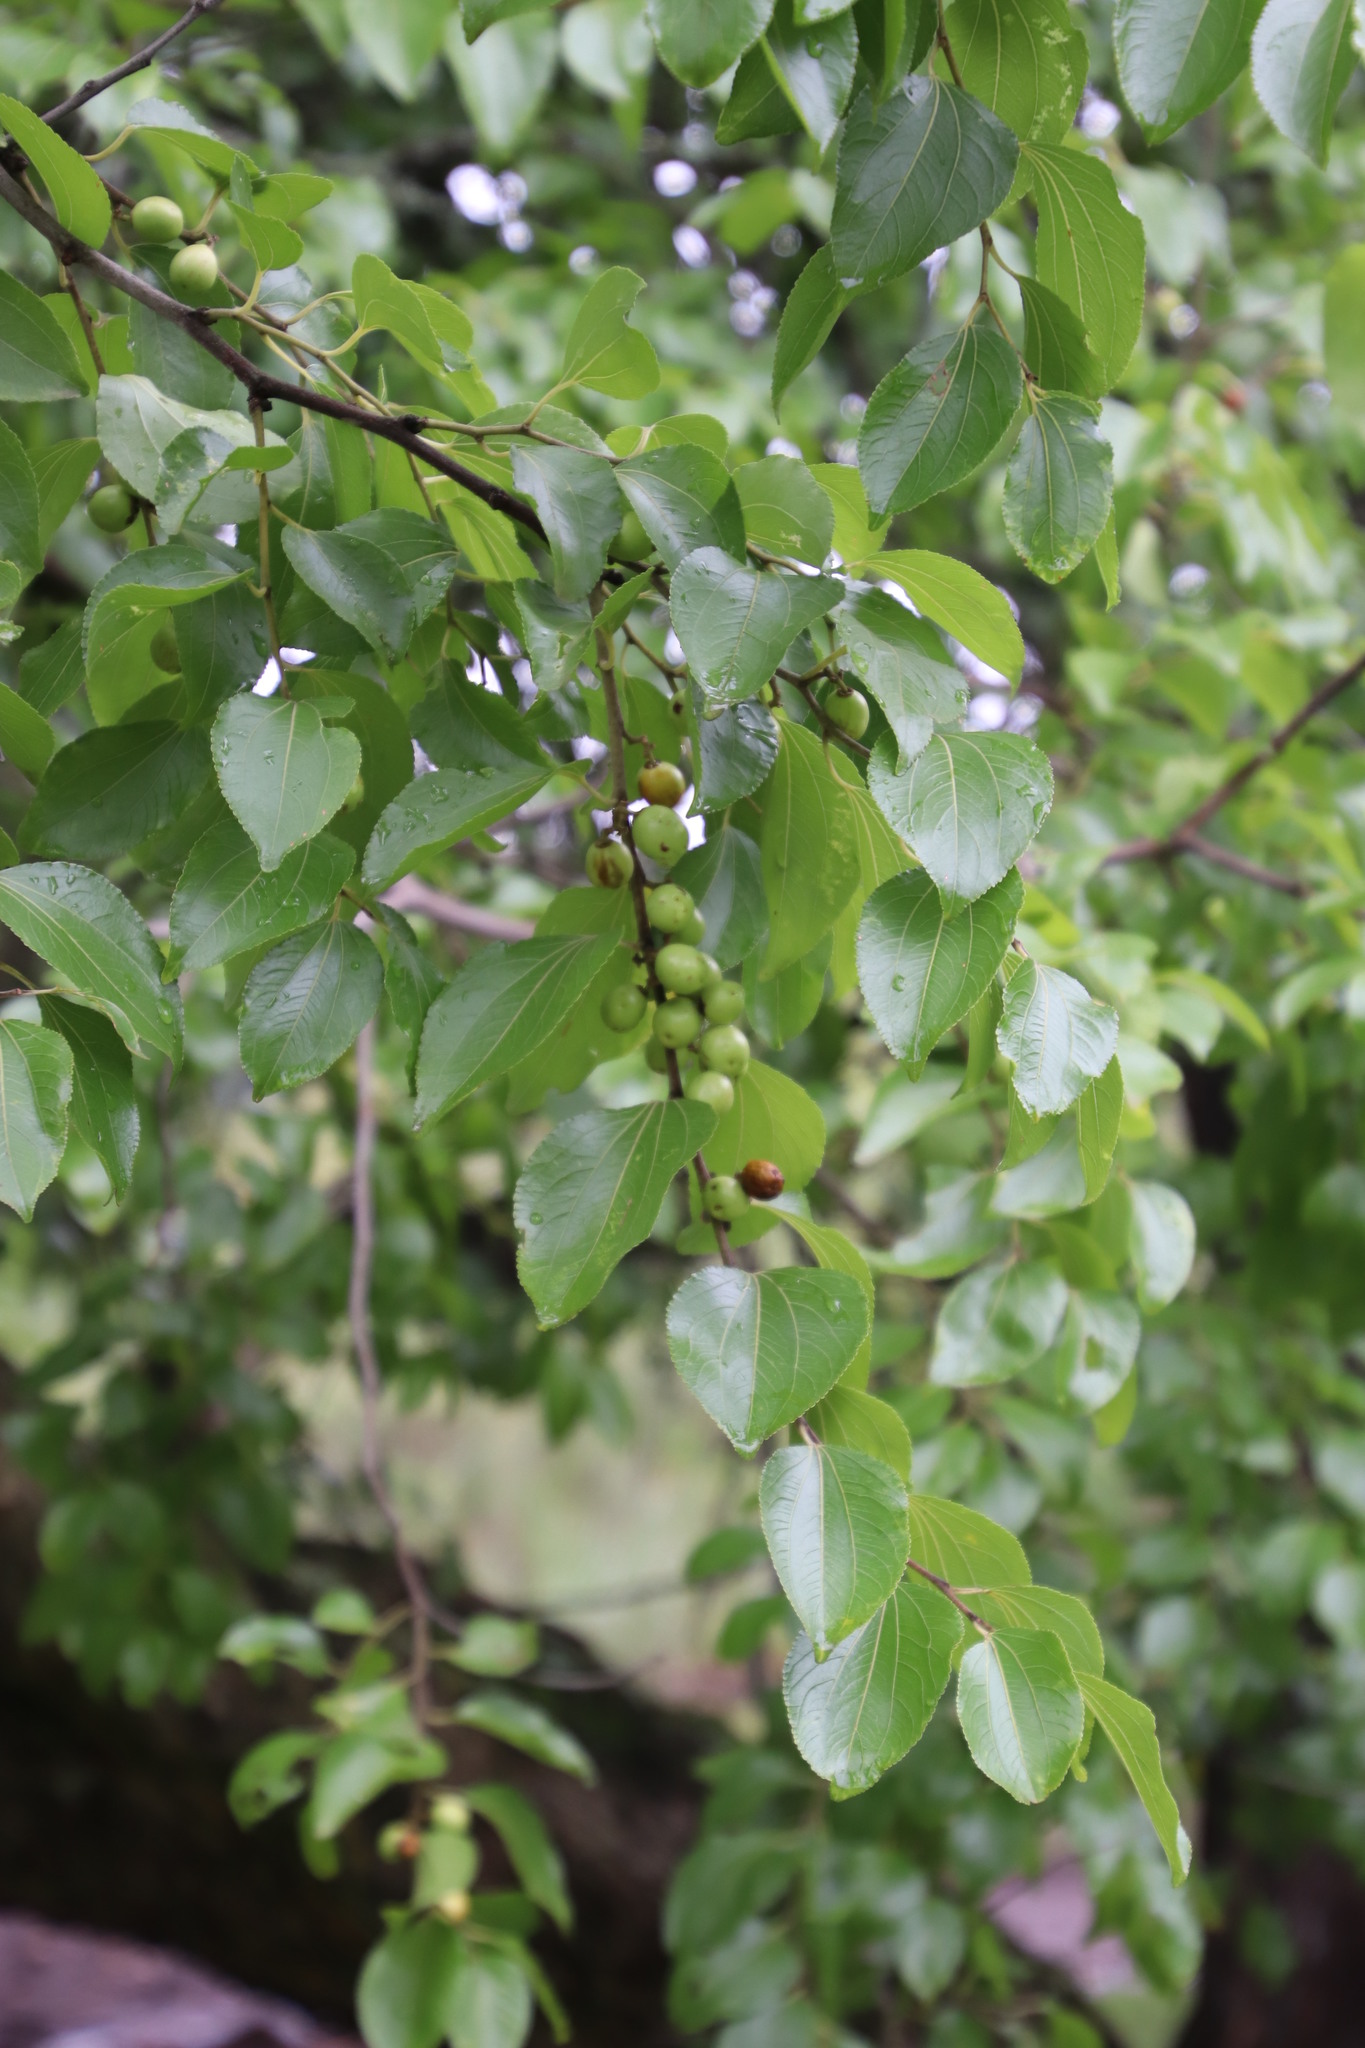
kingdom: Plantae
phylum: Tracheophyta
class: Magnoliopsida
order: Rosales
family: Rhamnaceae
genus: Ziziphus
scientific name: Ziziphus mucronata
